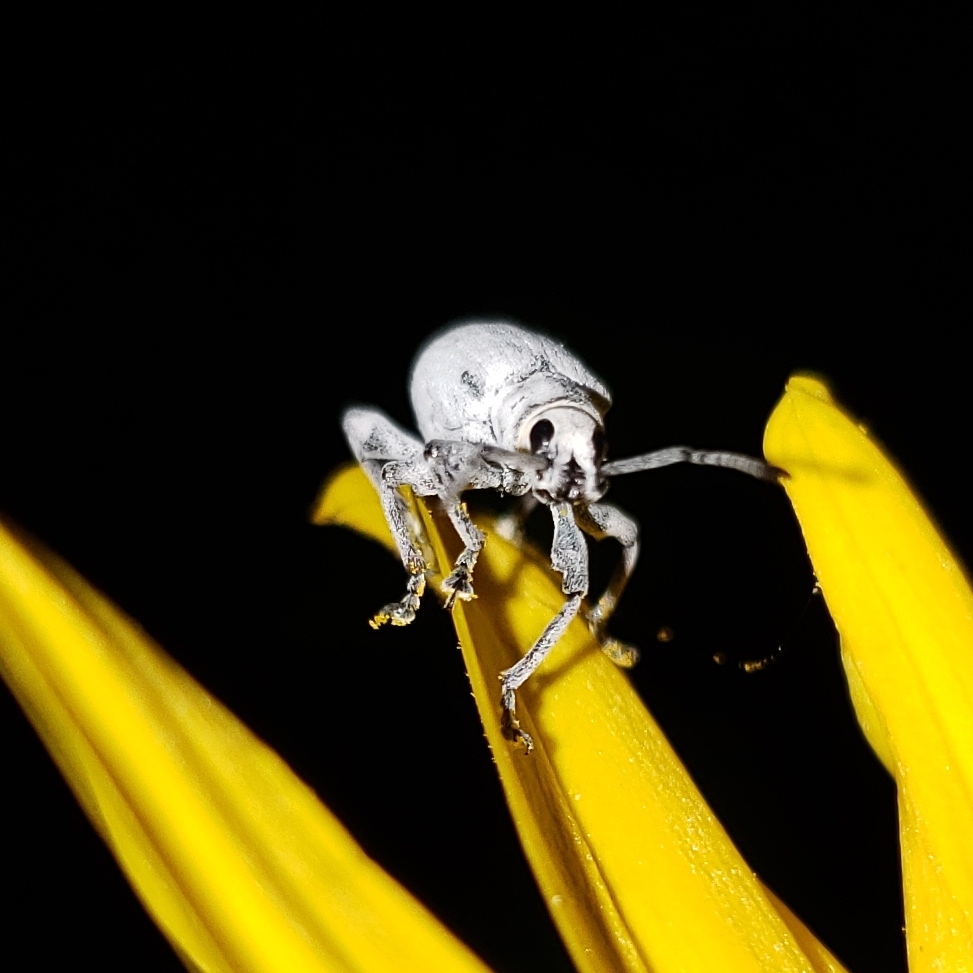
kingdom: Animalia
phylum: Arthropoda
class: Insecta
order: Coleoptera
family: Curculionidae
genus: Myllocerus
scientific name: Myllocerus undecimpustulatus
